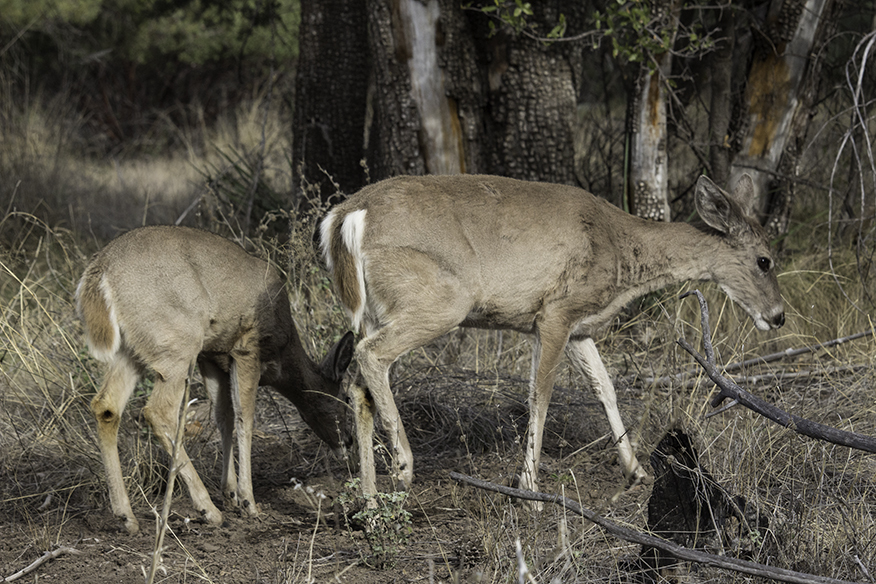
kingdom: Animalia
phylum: Chordata
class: Mammalia
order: Artiodactyla
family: Cervidae
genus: Odocoileus
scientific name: Odocoileus virginianus
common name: White-tailed deer
